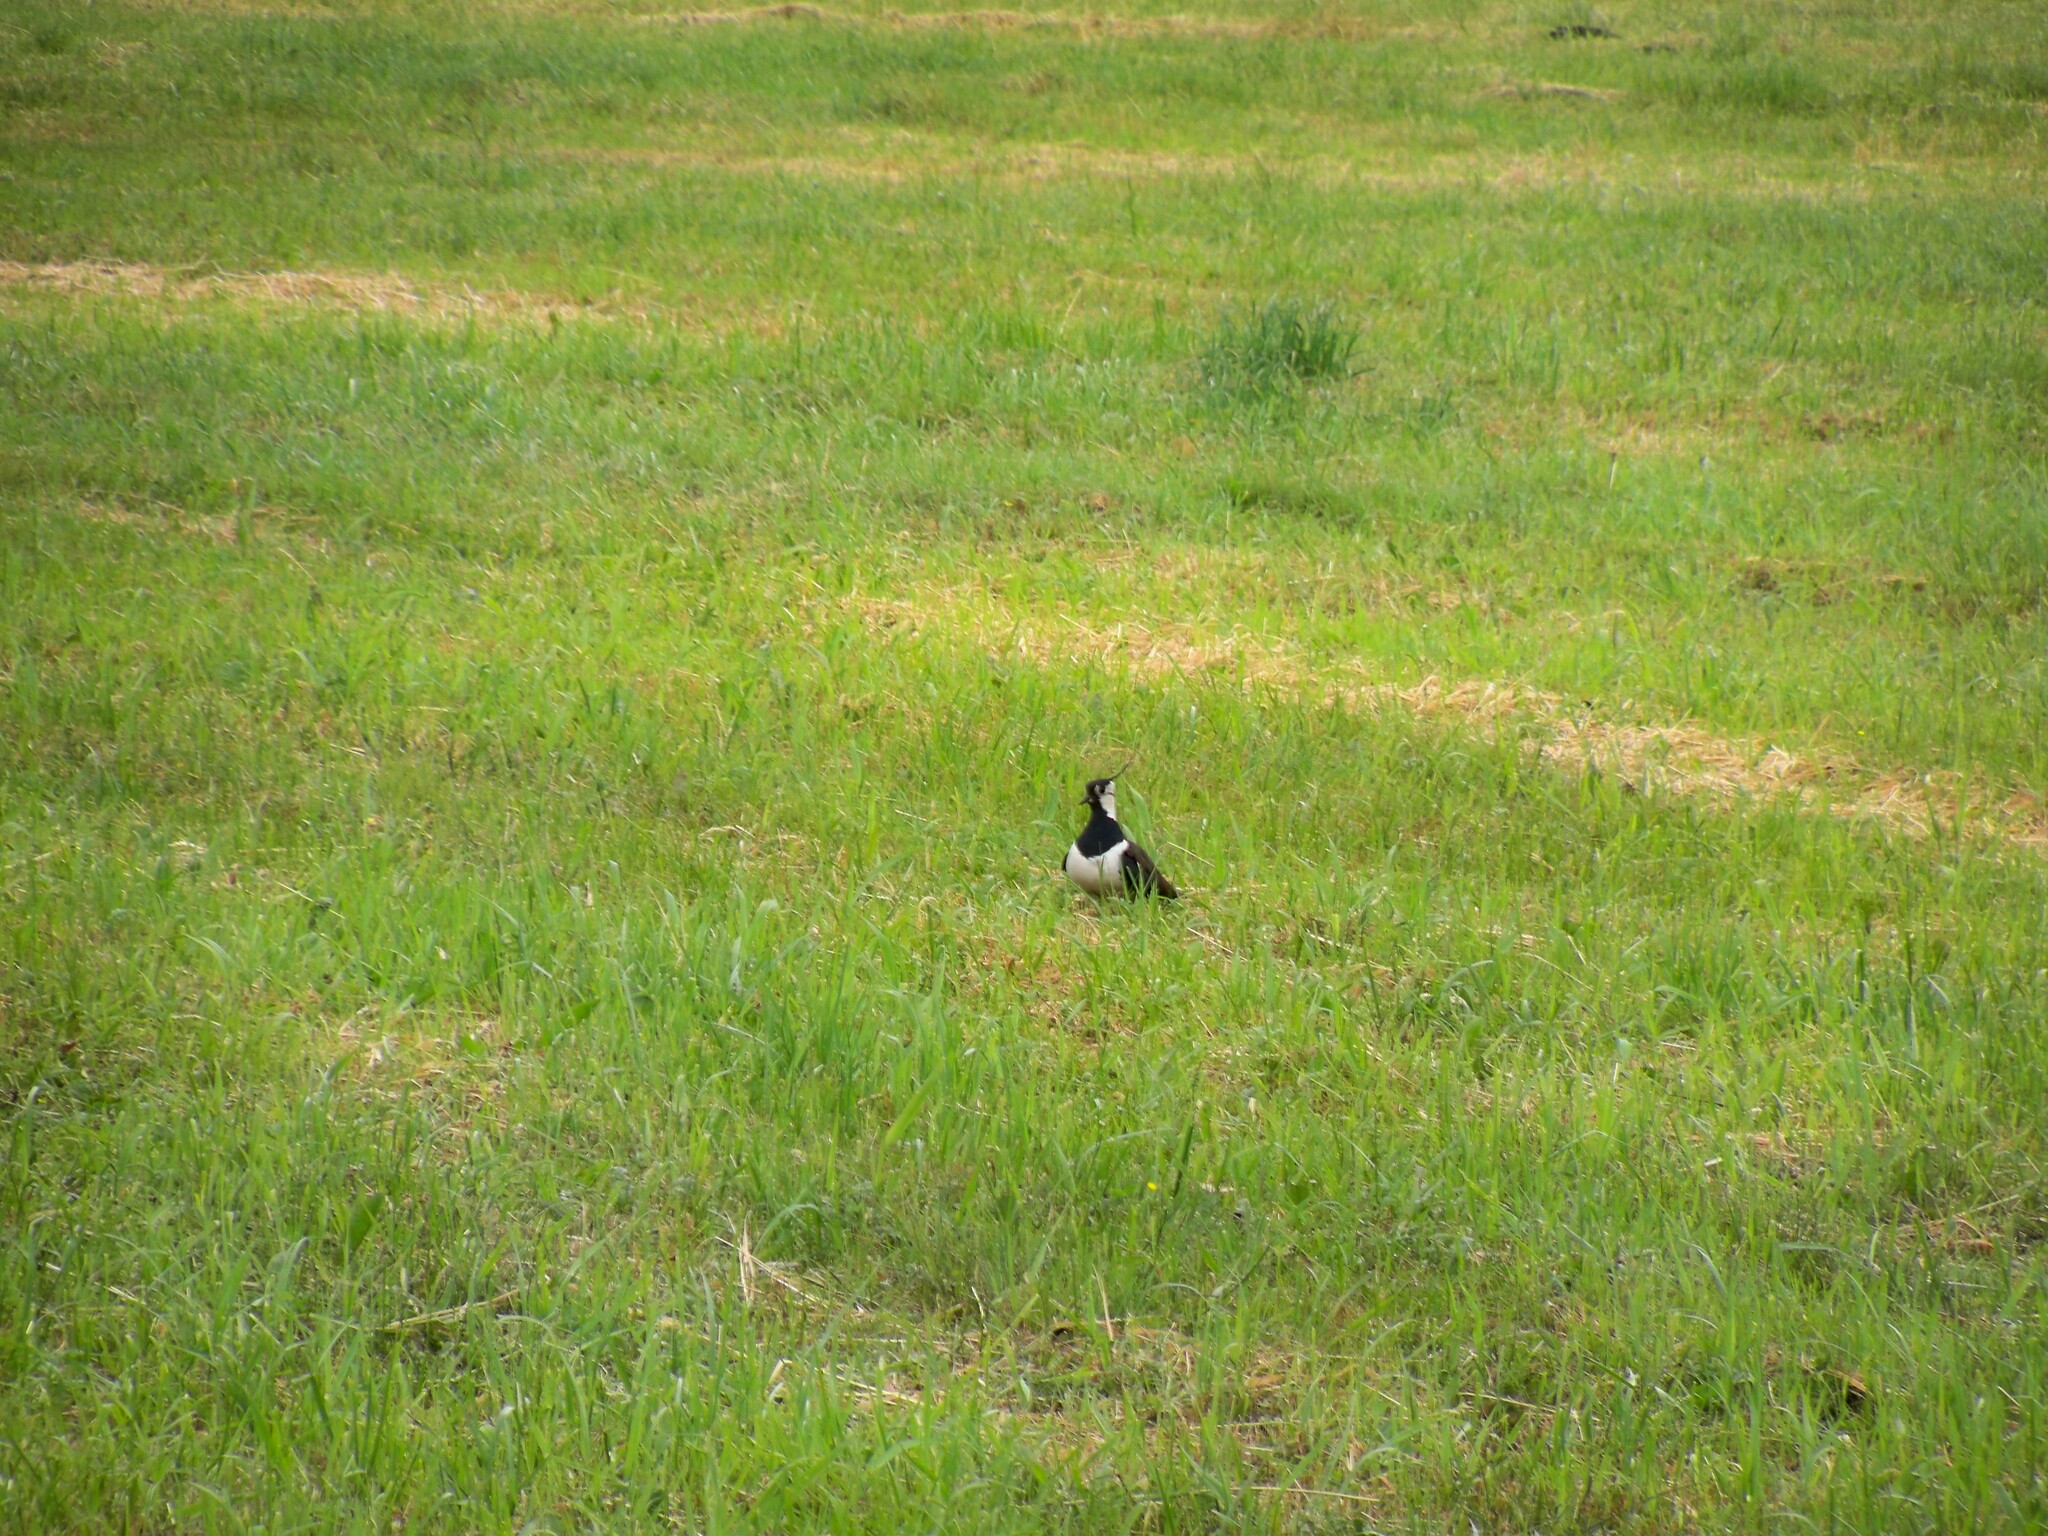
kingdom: Animalia
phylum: Chordata
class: Aves
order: Charadriiformes
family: Charadriidae
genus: Vanellus
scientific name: Vanellus vanellus
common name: Northern lapwing
